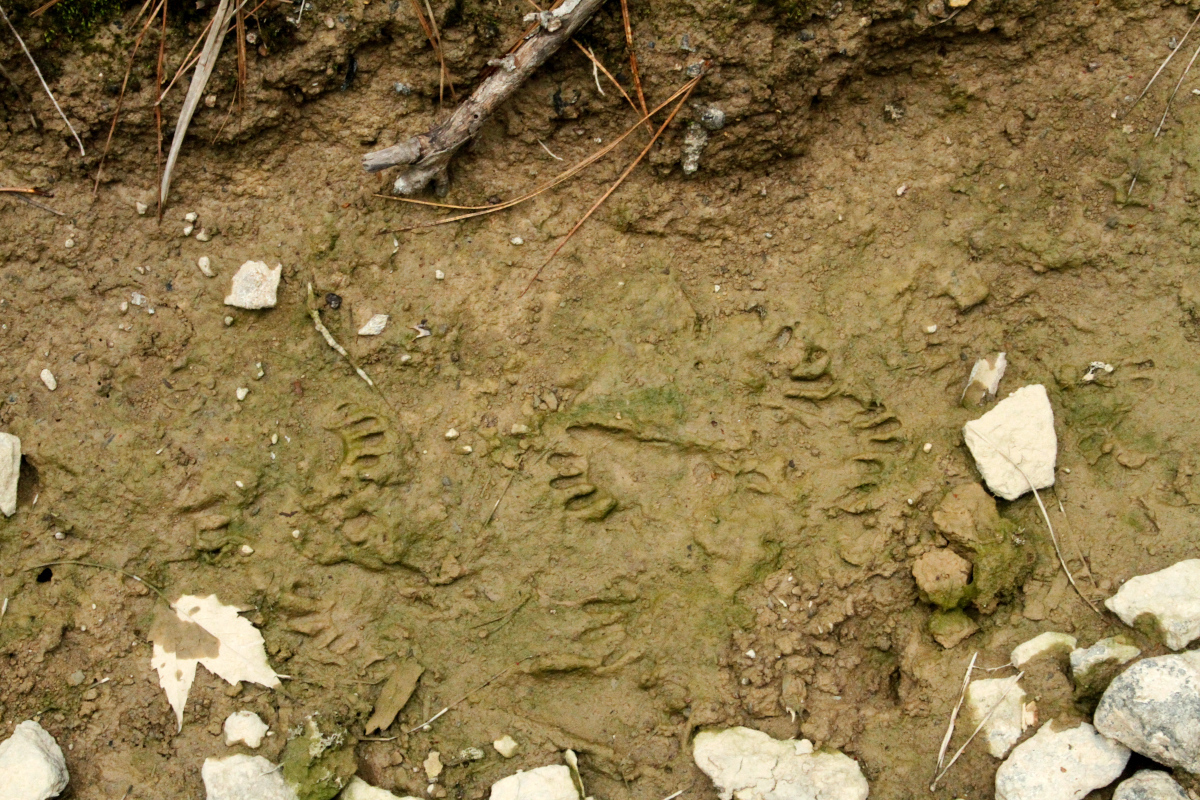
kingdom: Animalia
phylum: Chordata
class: Mammalia
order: Carnivora
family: Procyonidae
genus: Procyon
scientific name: Procyon lotor
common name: Raccoon
